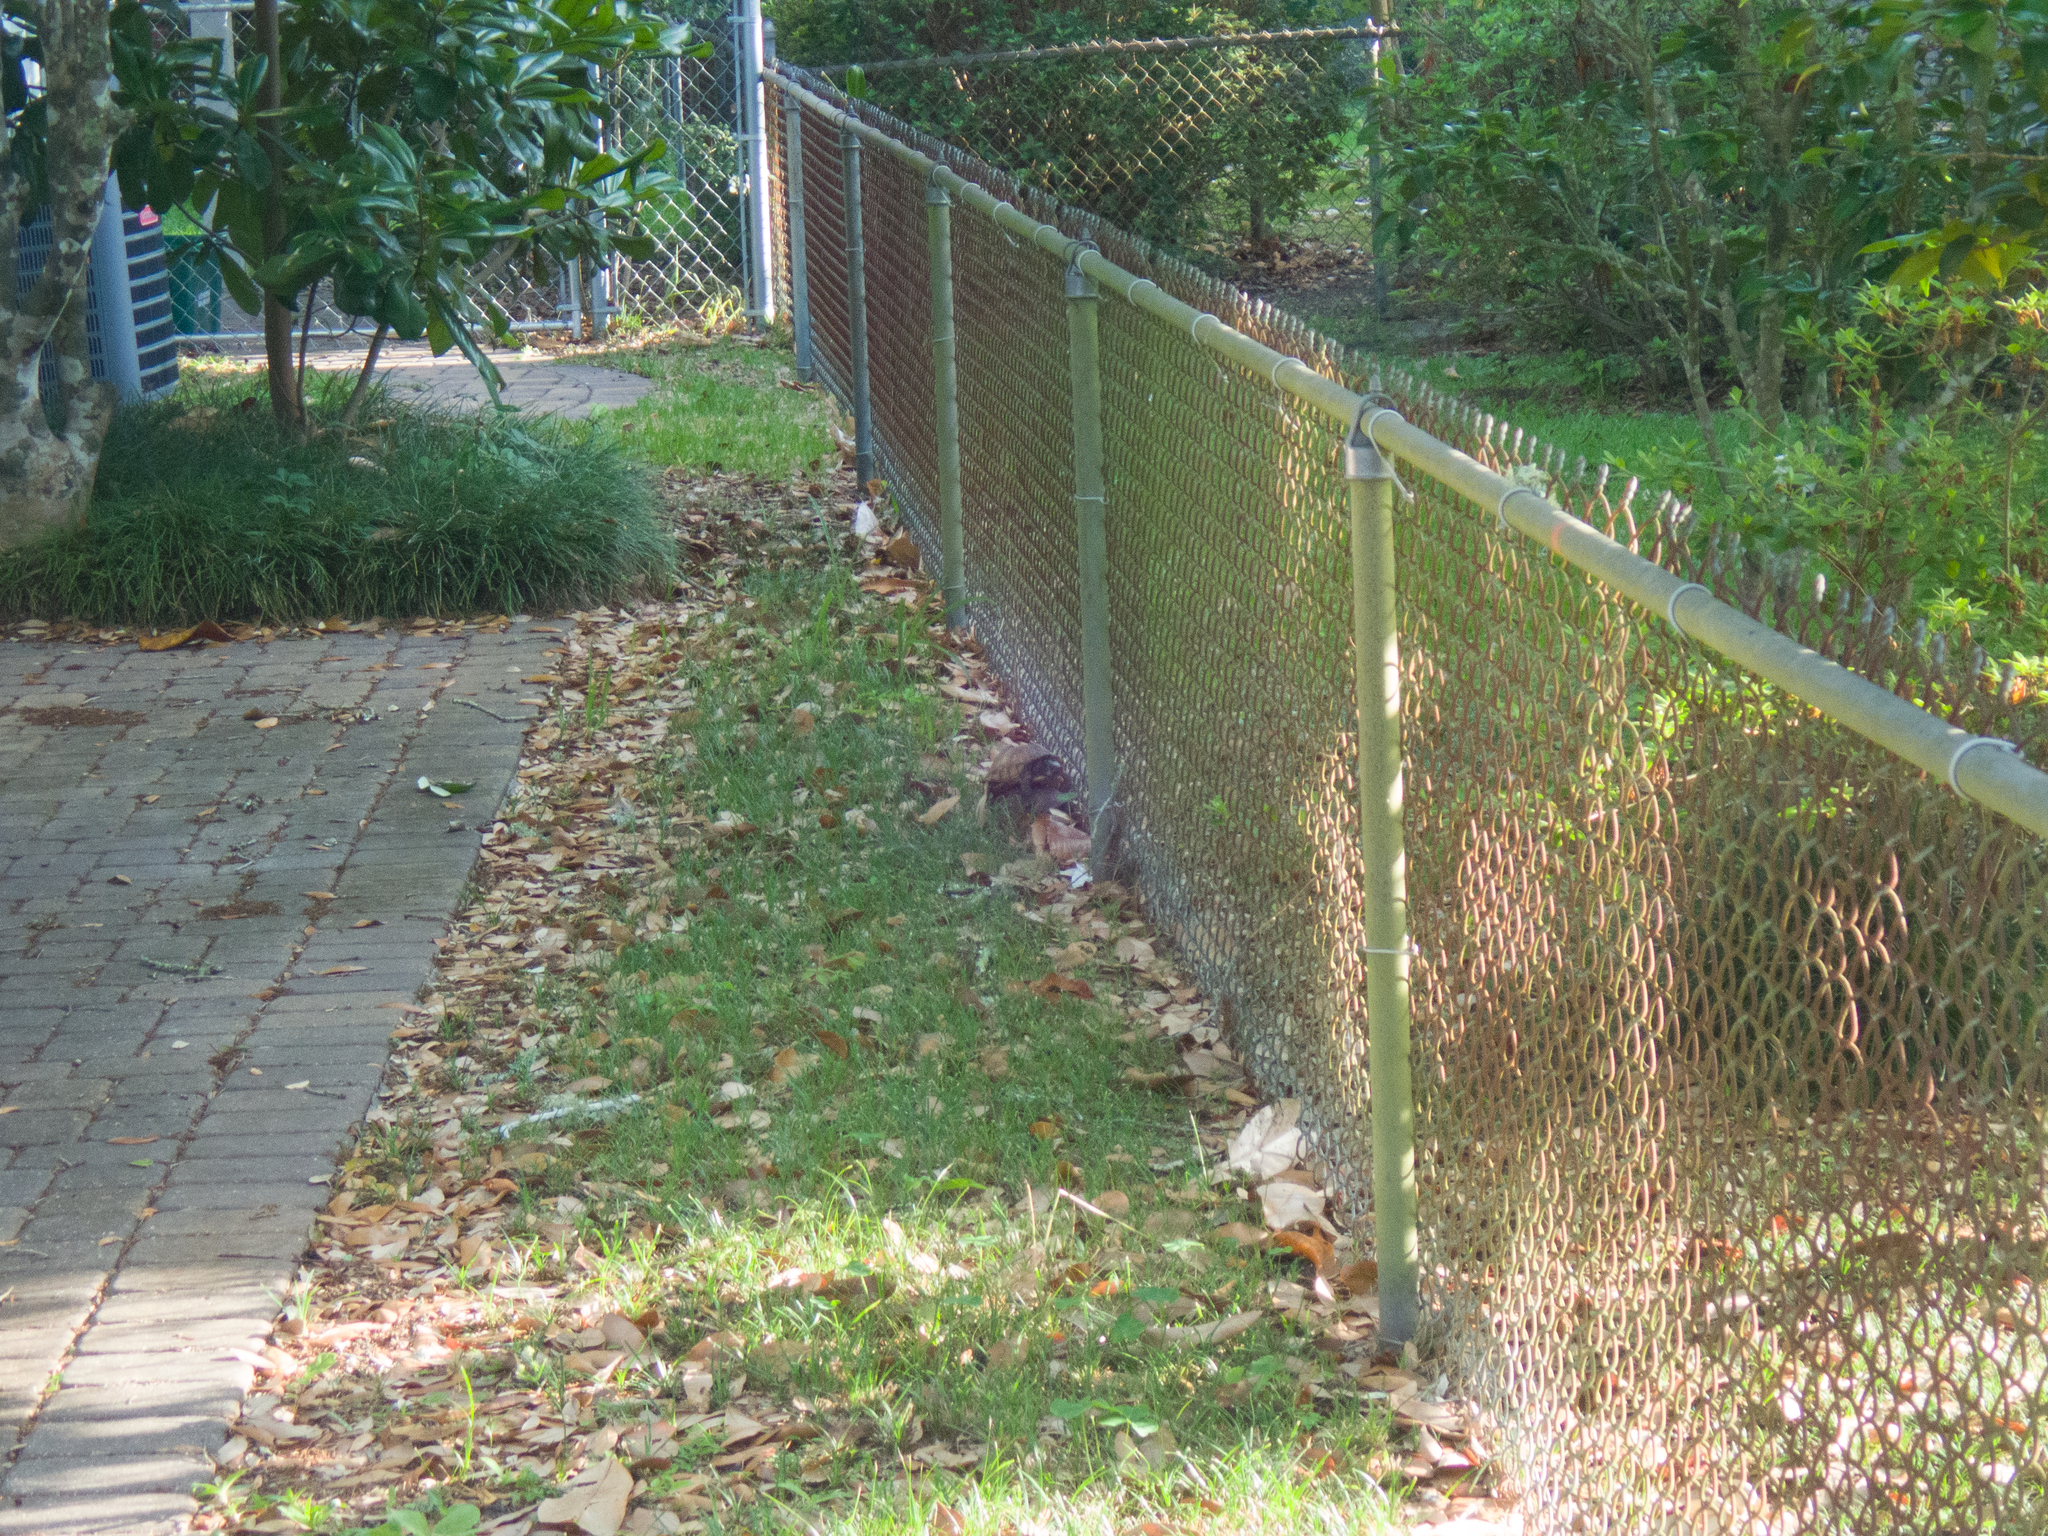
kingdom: Animalia
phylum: Chordata
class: Testudines
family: Emydidae
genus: Terrapene
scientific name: Terrapene carolina
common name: Common box turtle
